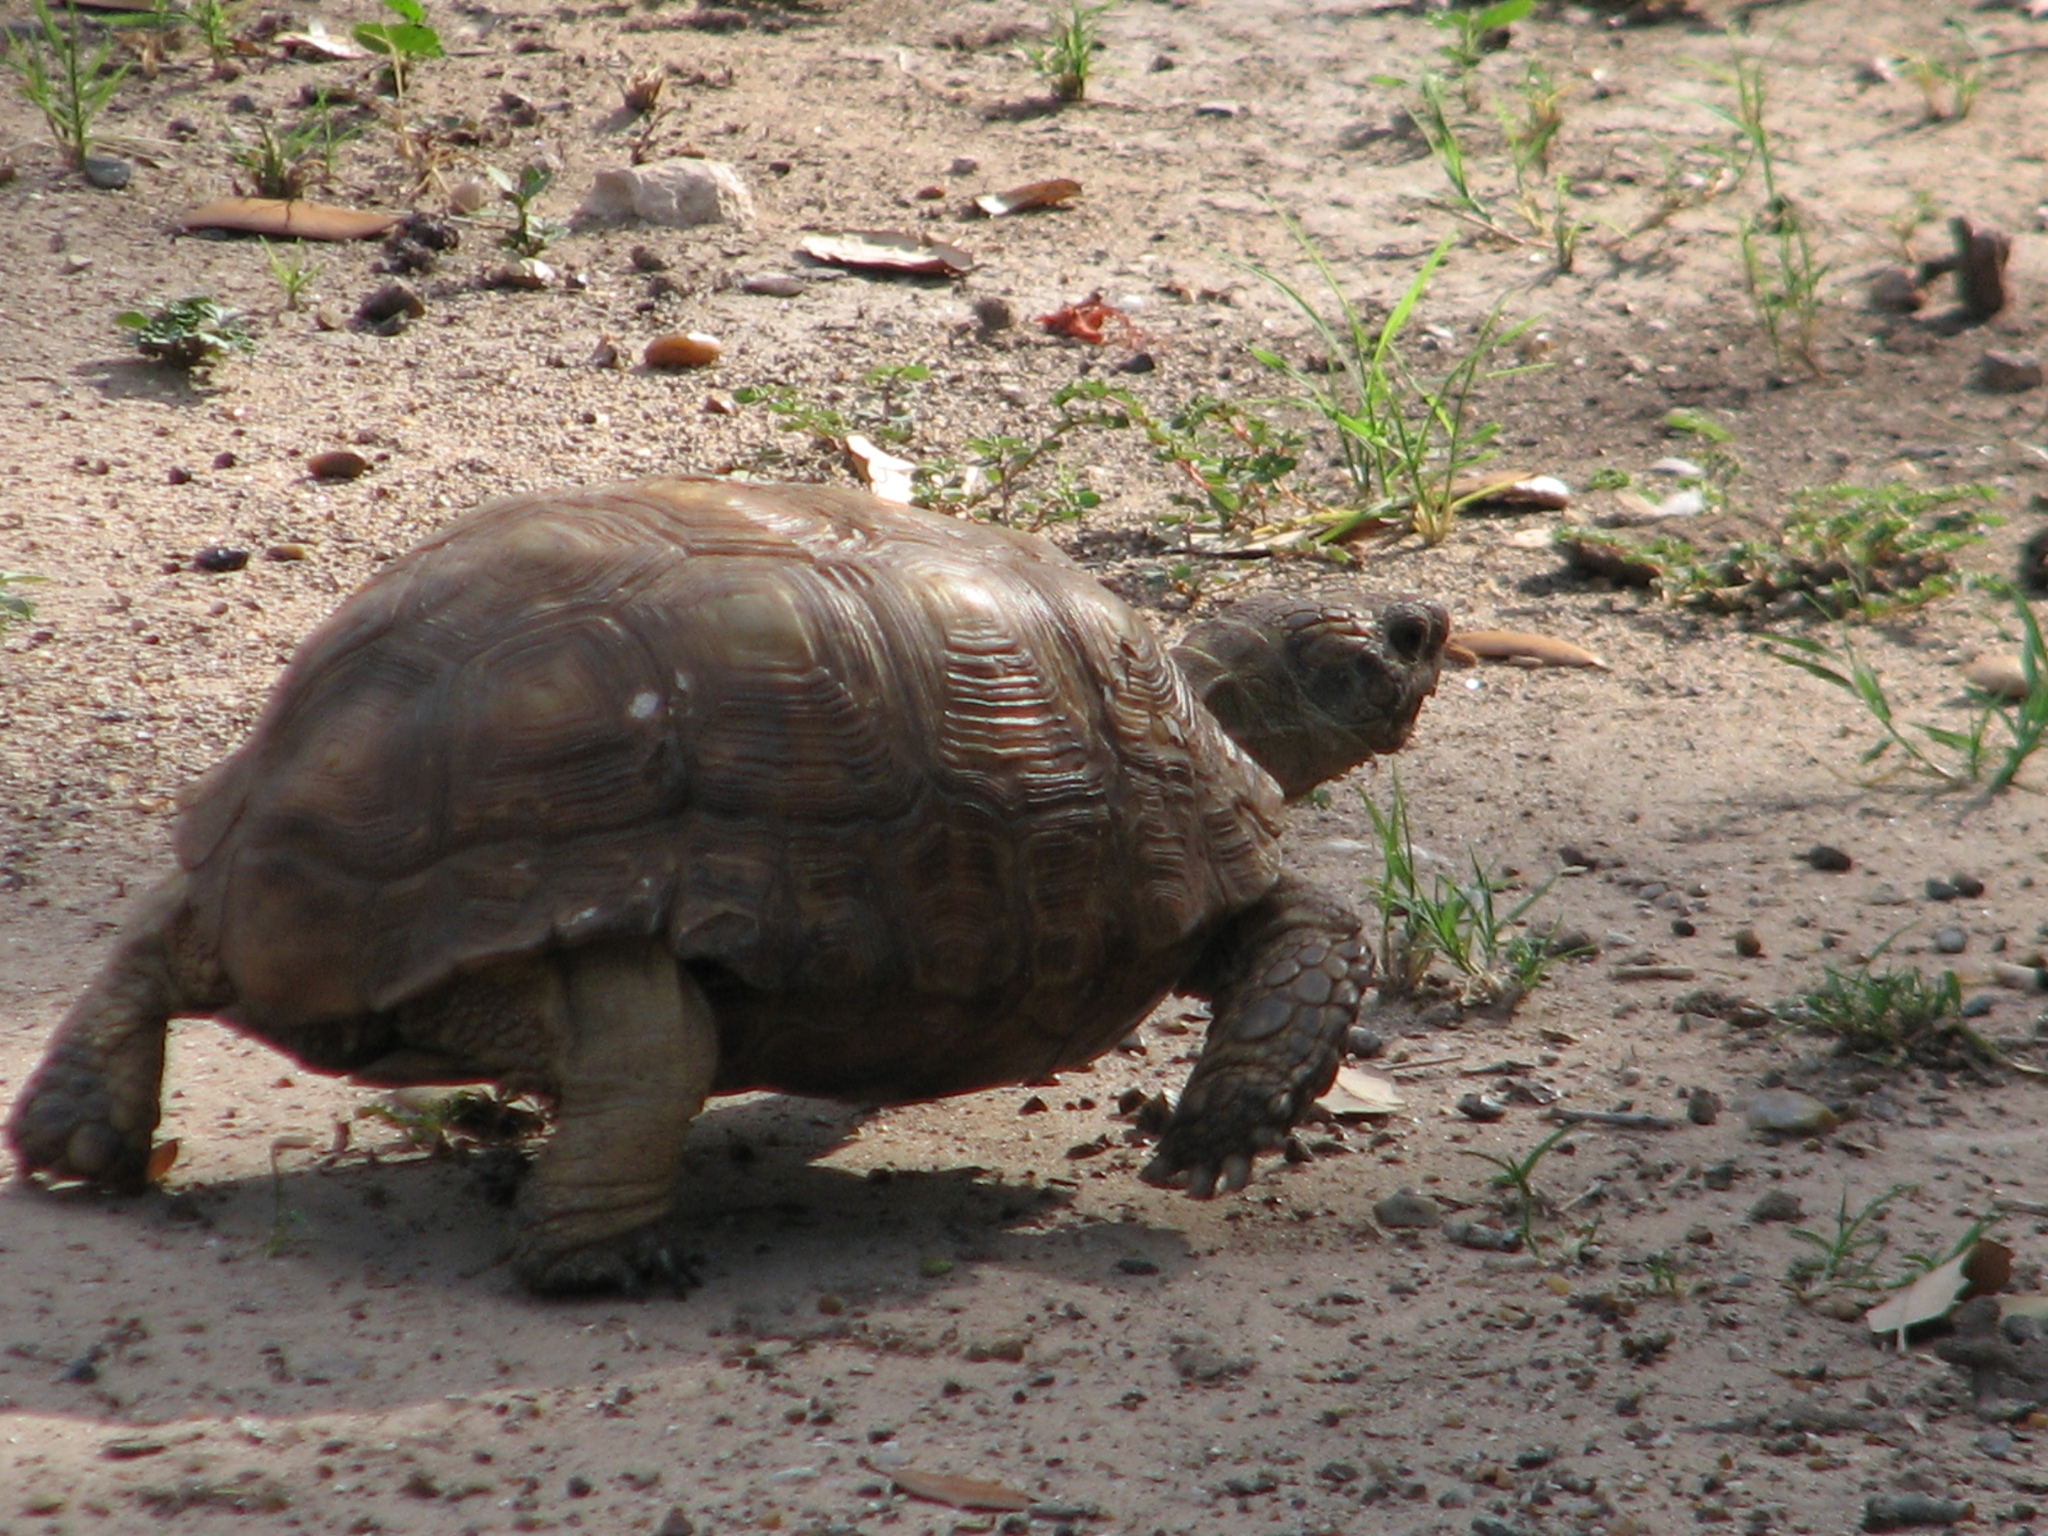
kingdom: Animalia
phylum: Chordata
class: Testudines
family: Testudinidae
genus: Gopherus
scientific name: Gopherus berlandieri
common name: Texas (gopher )tortoise
